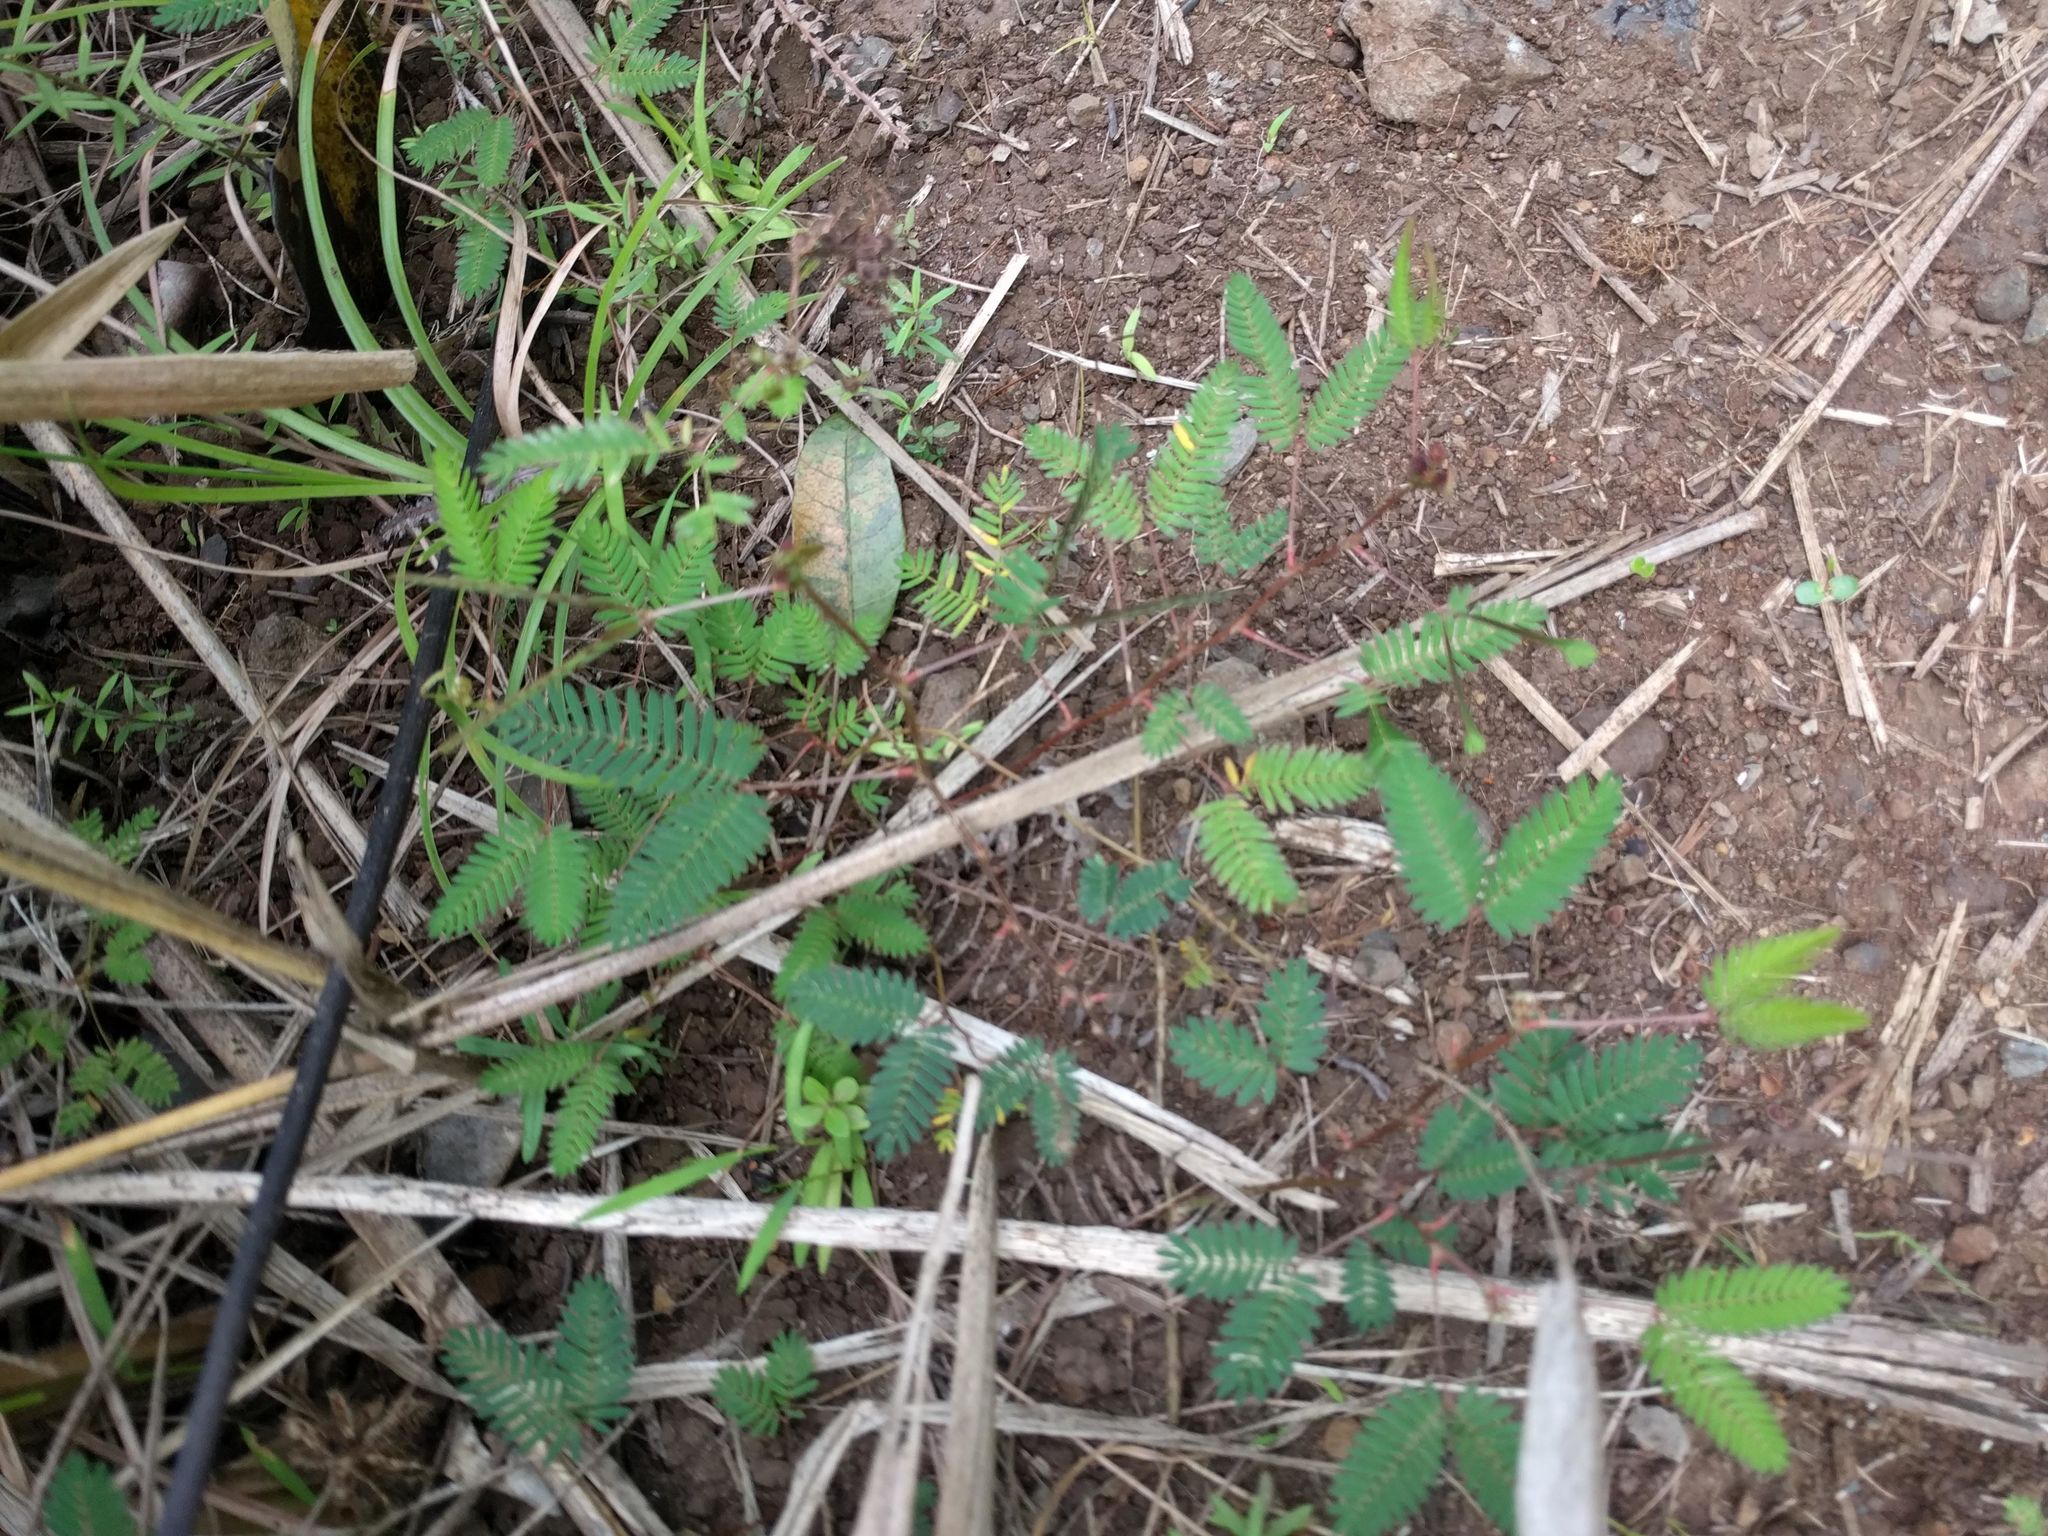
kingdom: Plantae
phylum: Tracheophyta
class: Magnoliopsida
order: Fabales
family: Fabaceae
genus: Mimosa
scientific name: Mimosa pudica
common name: Sensitive plant
